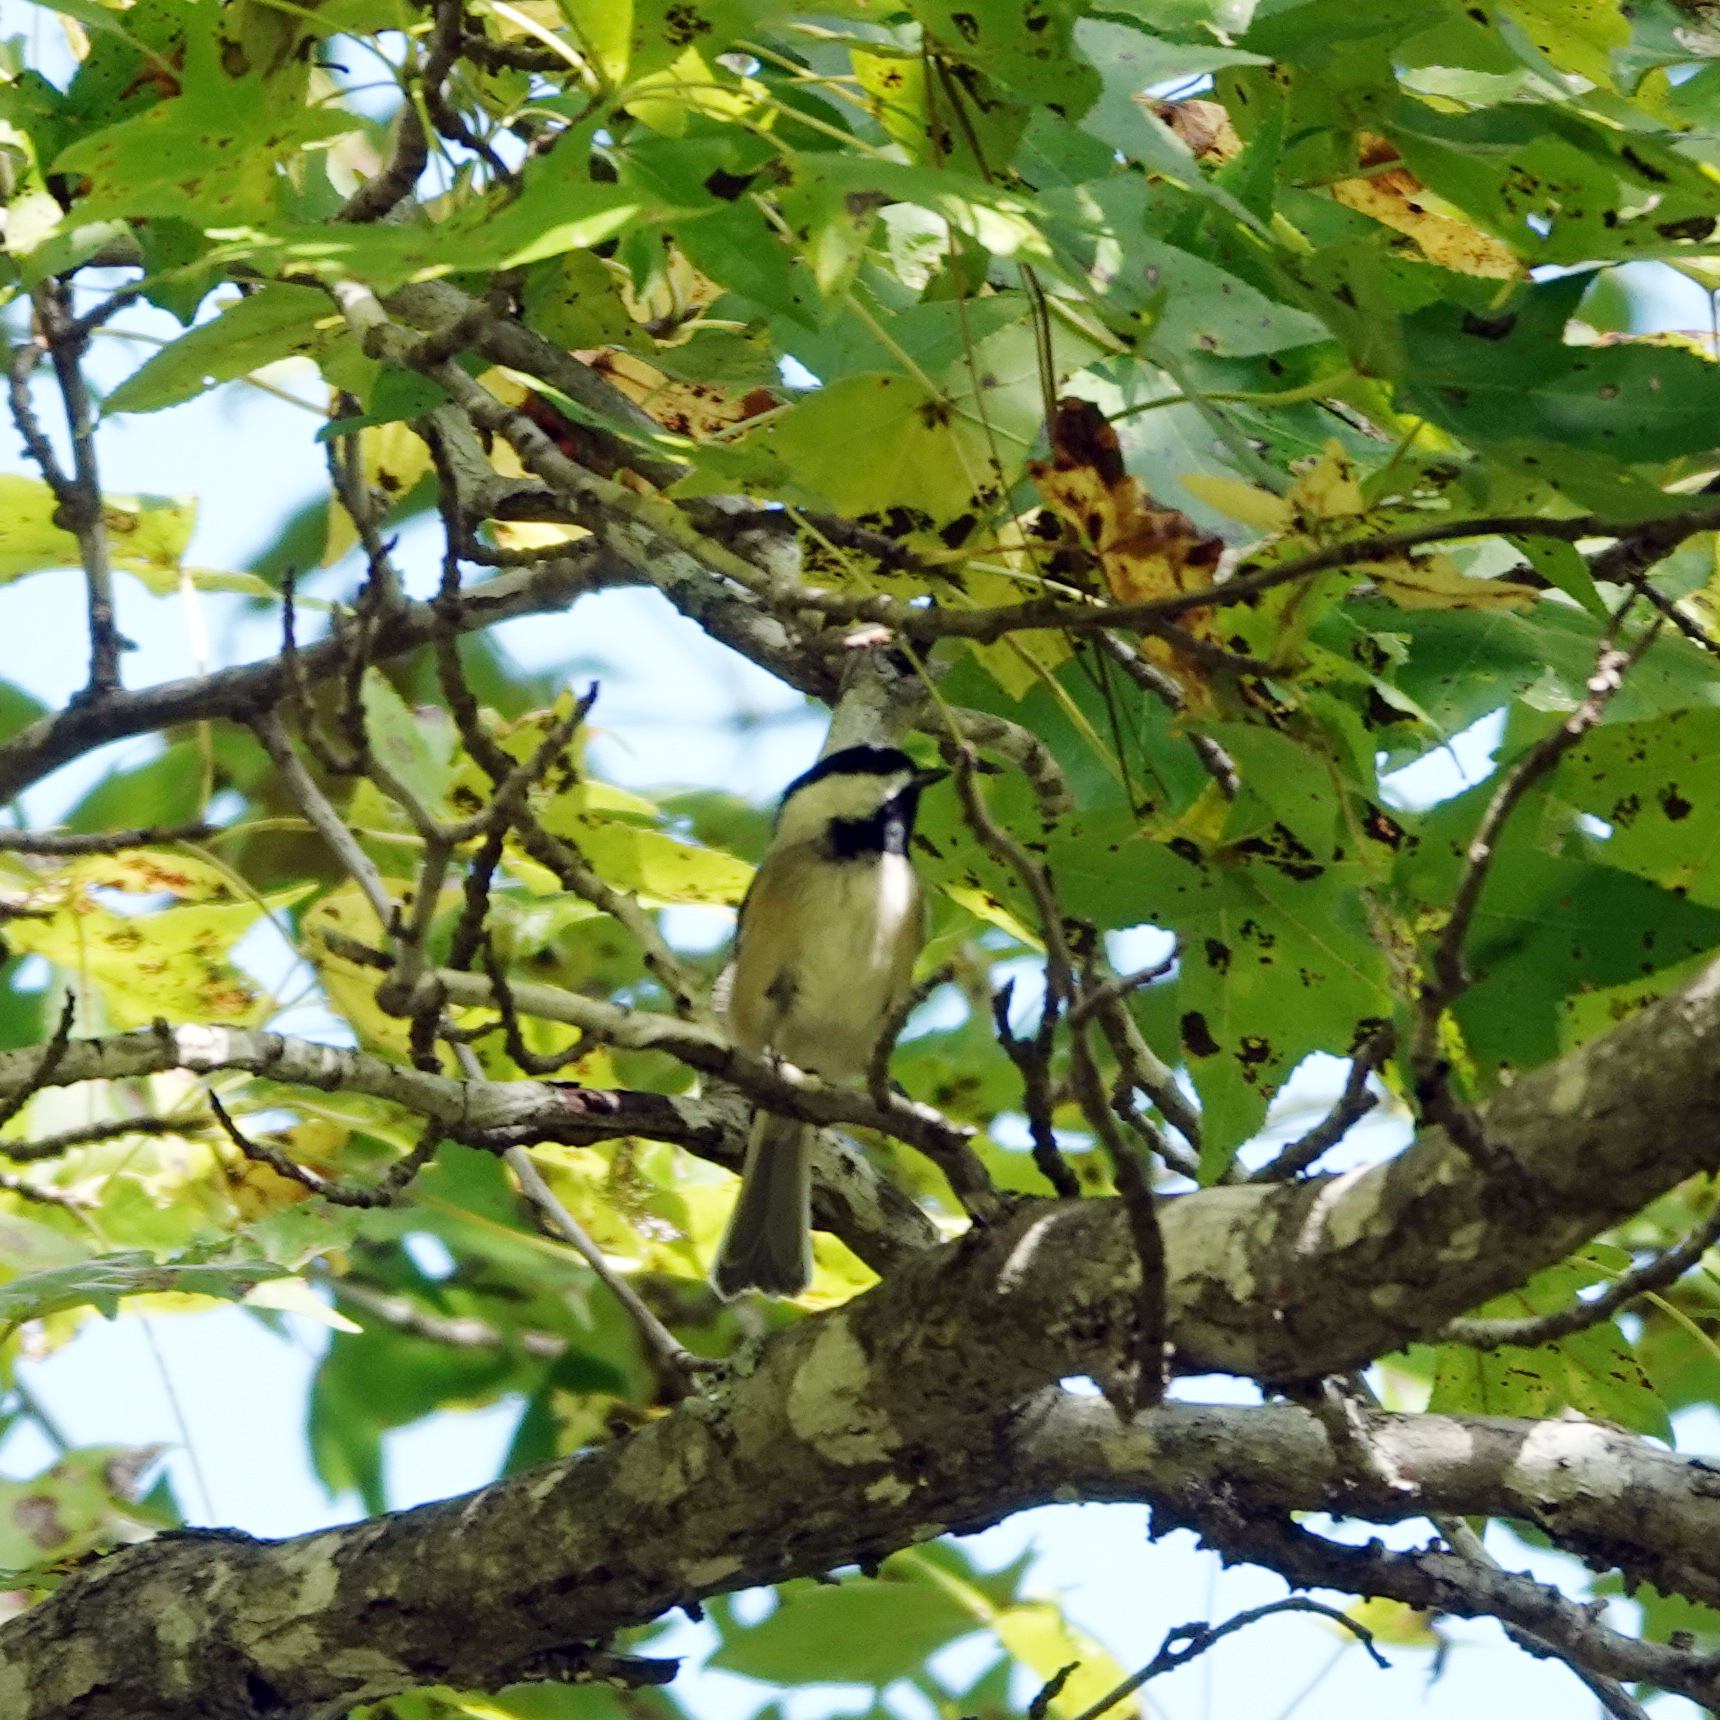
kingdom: Animalia
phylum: Chordata
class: Aves
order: Passeriformes
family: Paridae
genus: Poecile
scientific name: Poecile carolinensis
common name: Carolina chickadee
